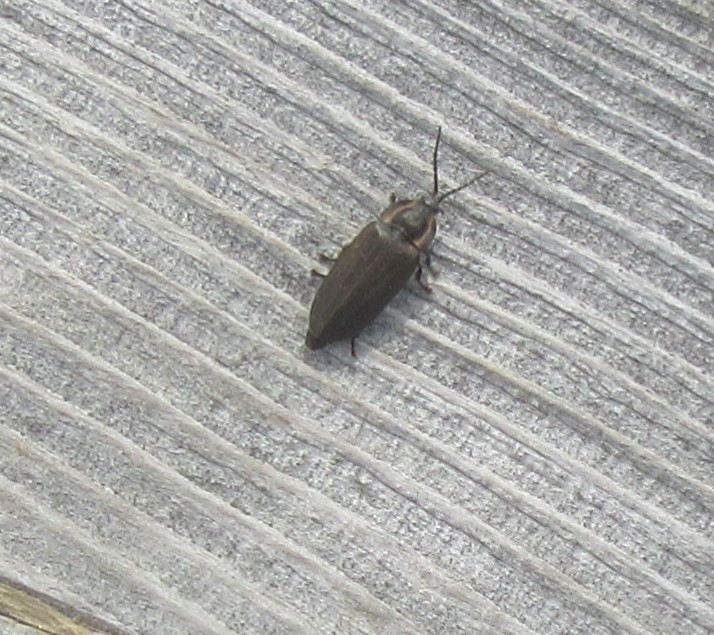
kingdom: Animalia
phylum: Arthropoda
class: Insecta
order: Coleoptera
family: Lampyridae
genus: Photinus
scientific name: Photinus corrusca
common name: Winter firefly
